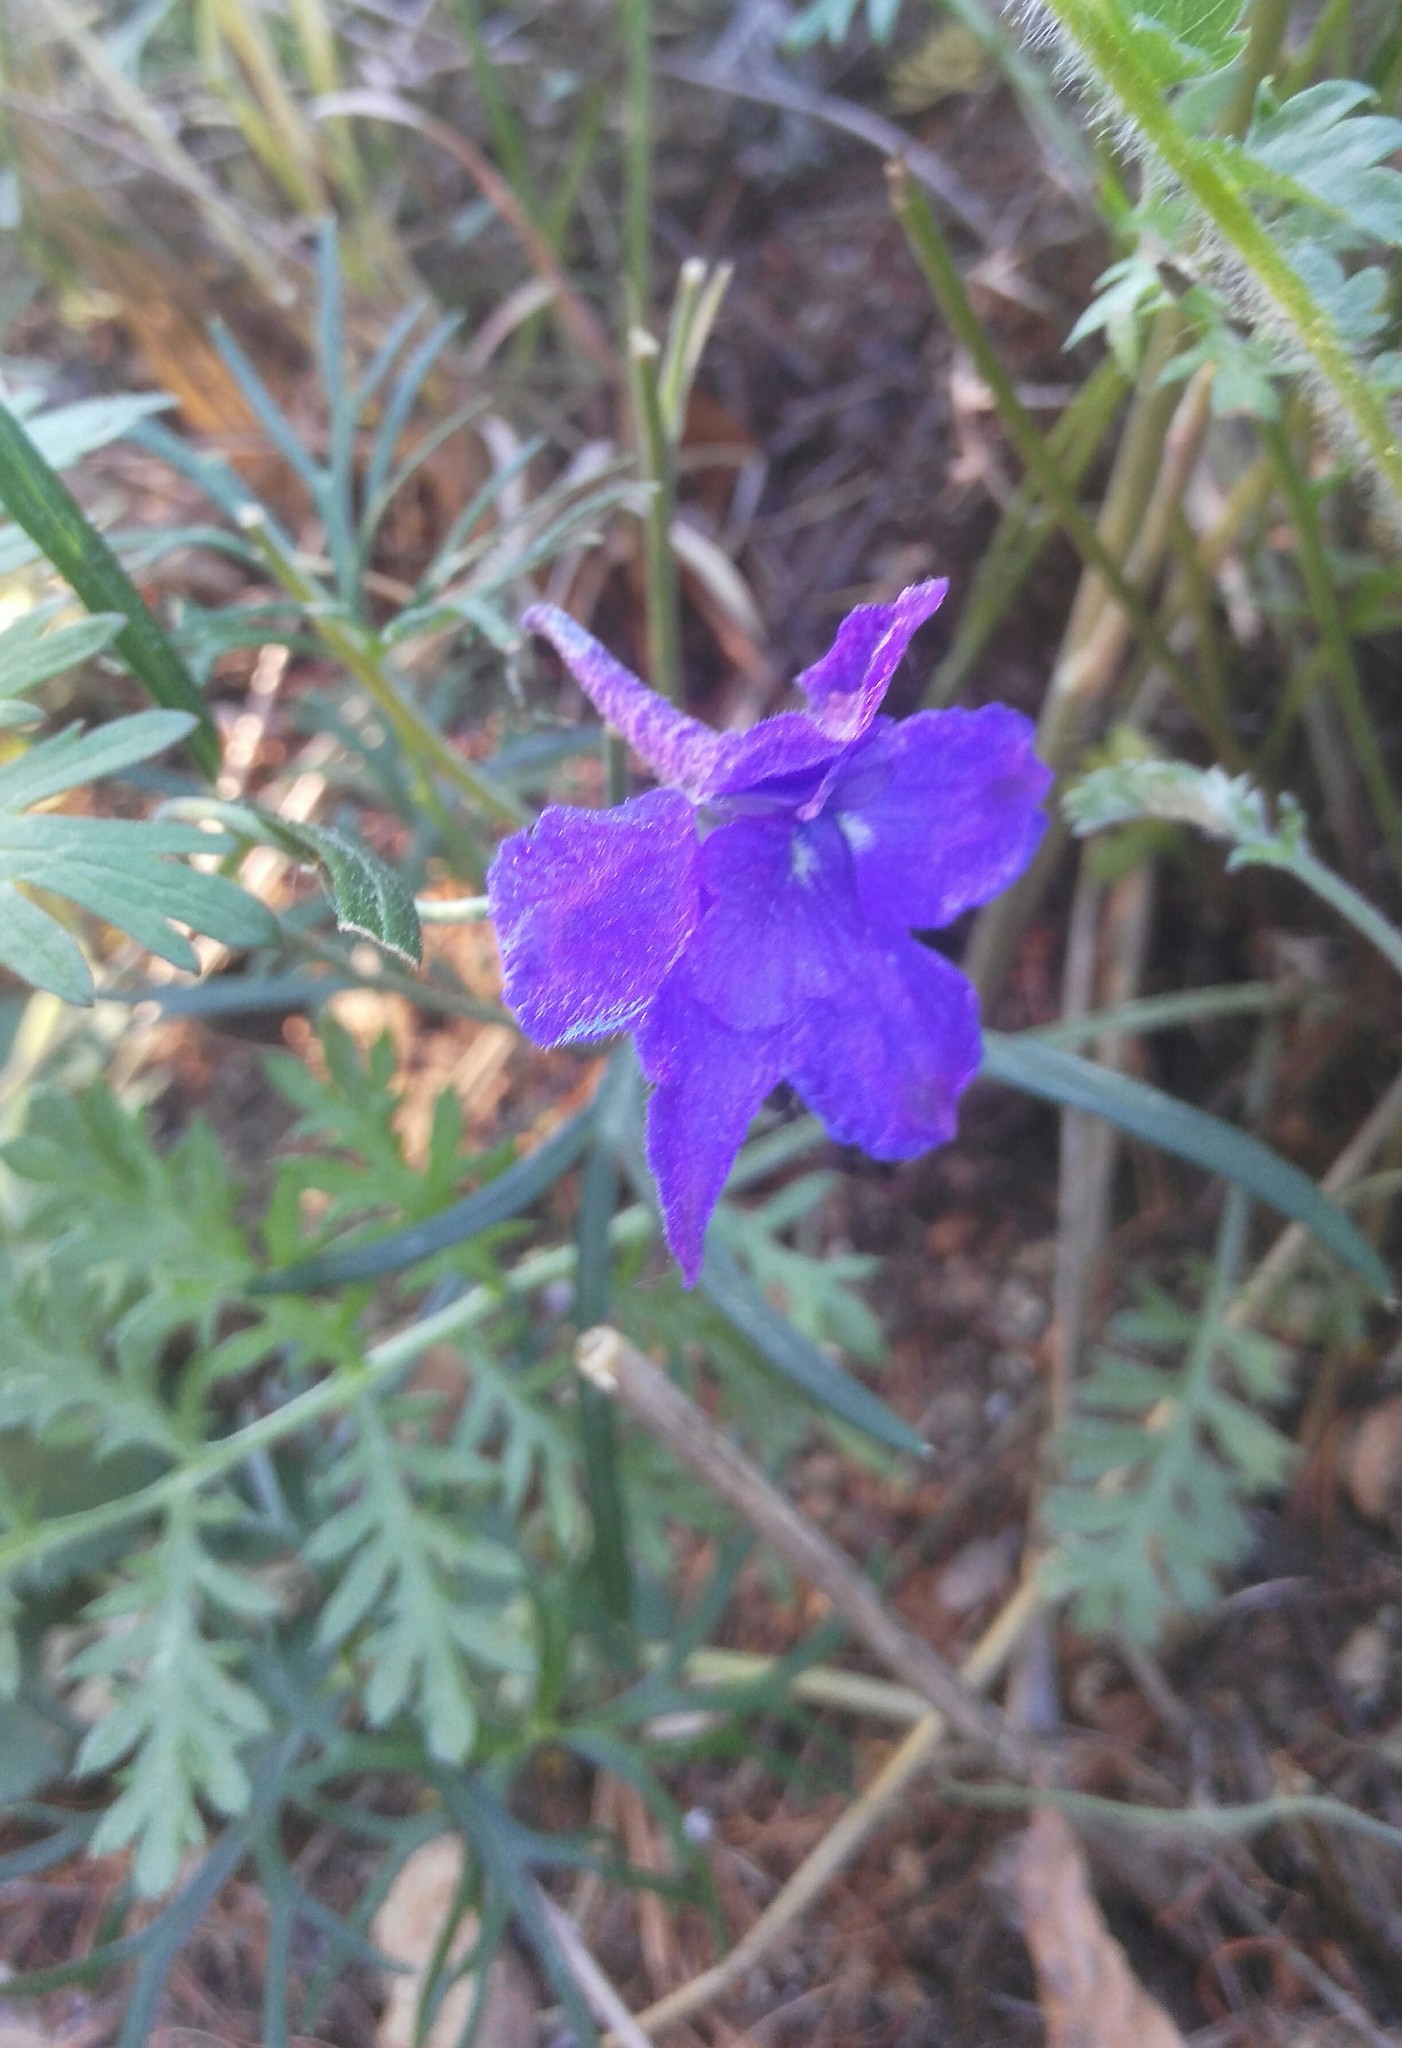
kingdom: Plantae
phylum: Tracheophyta
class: Magnoliopsida
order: Ranunculales
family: Ranunculaceae
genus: Delphinium
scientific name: Delphinium grandiflorum
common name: Siberian larkspur
